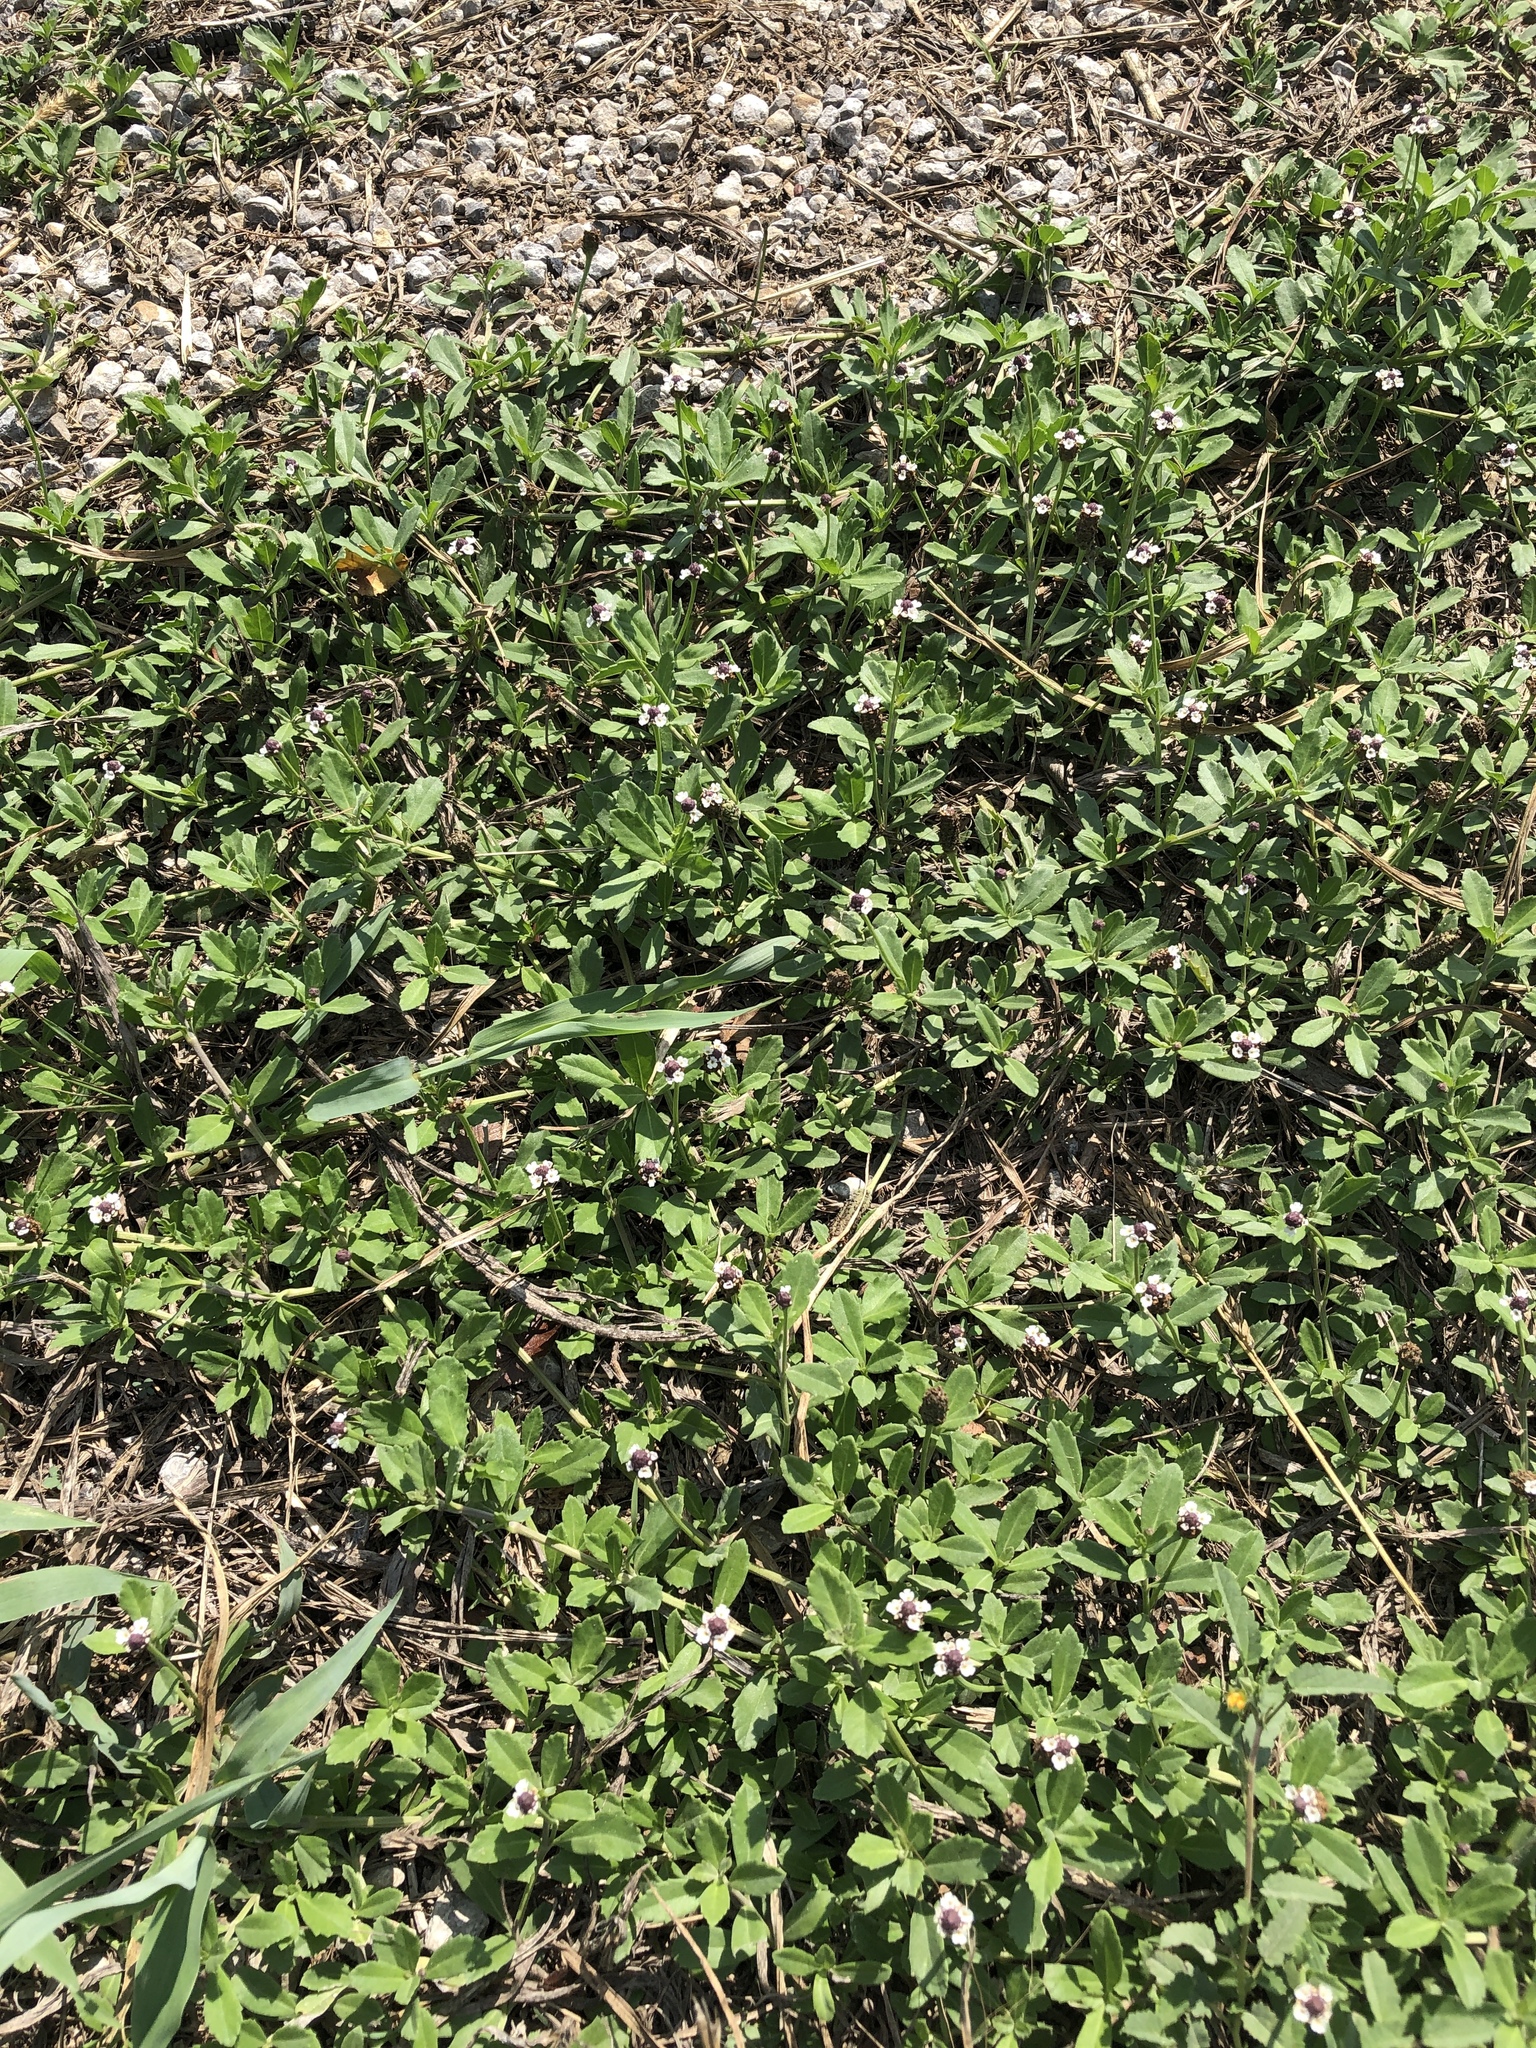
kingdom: Plantae
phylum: Tracheophyta
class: Magnoliopsida
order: Lamiales
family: Verbenaceae
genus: Phyla
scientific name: Phyla nodiflora
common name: Frogfruit
